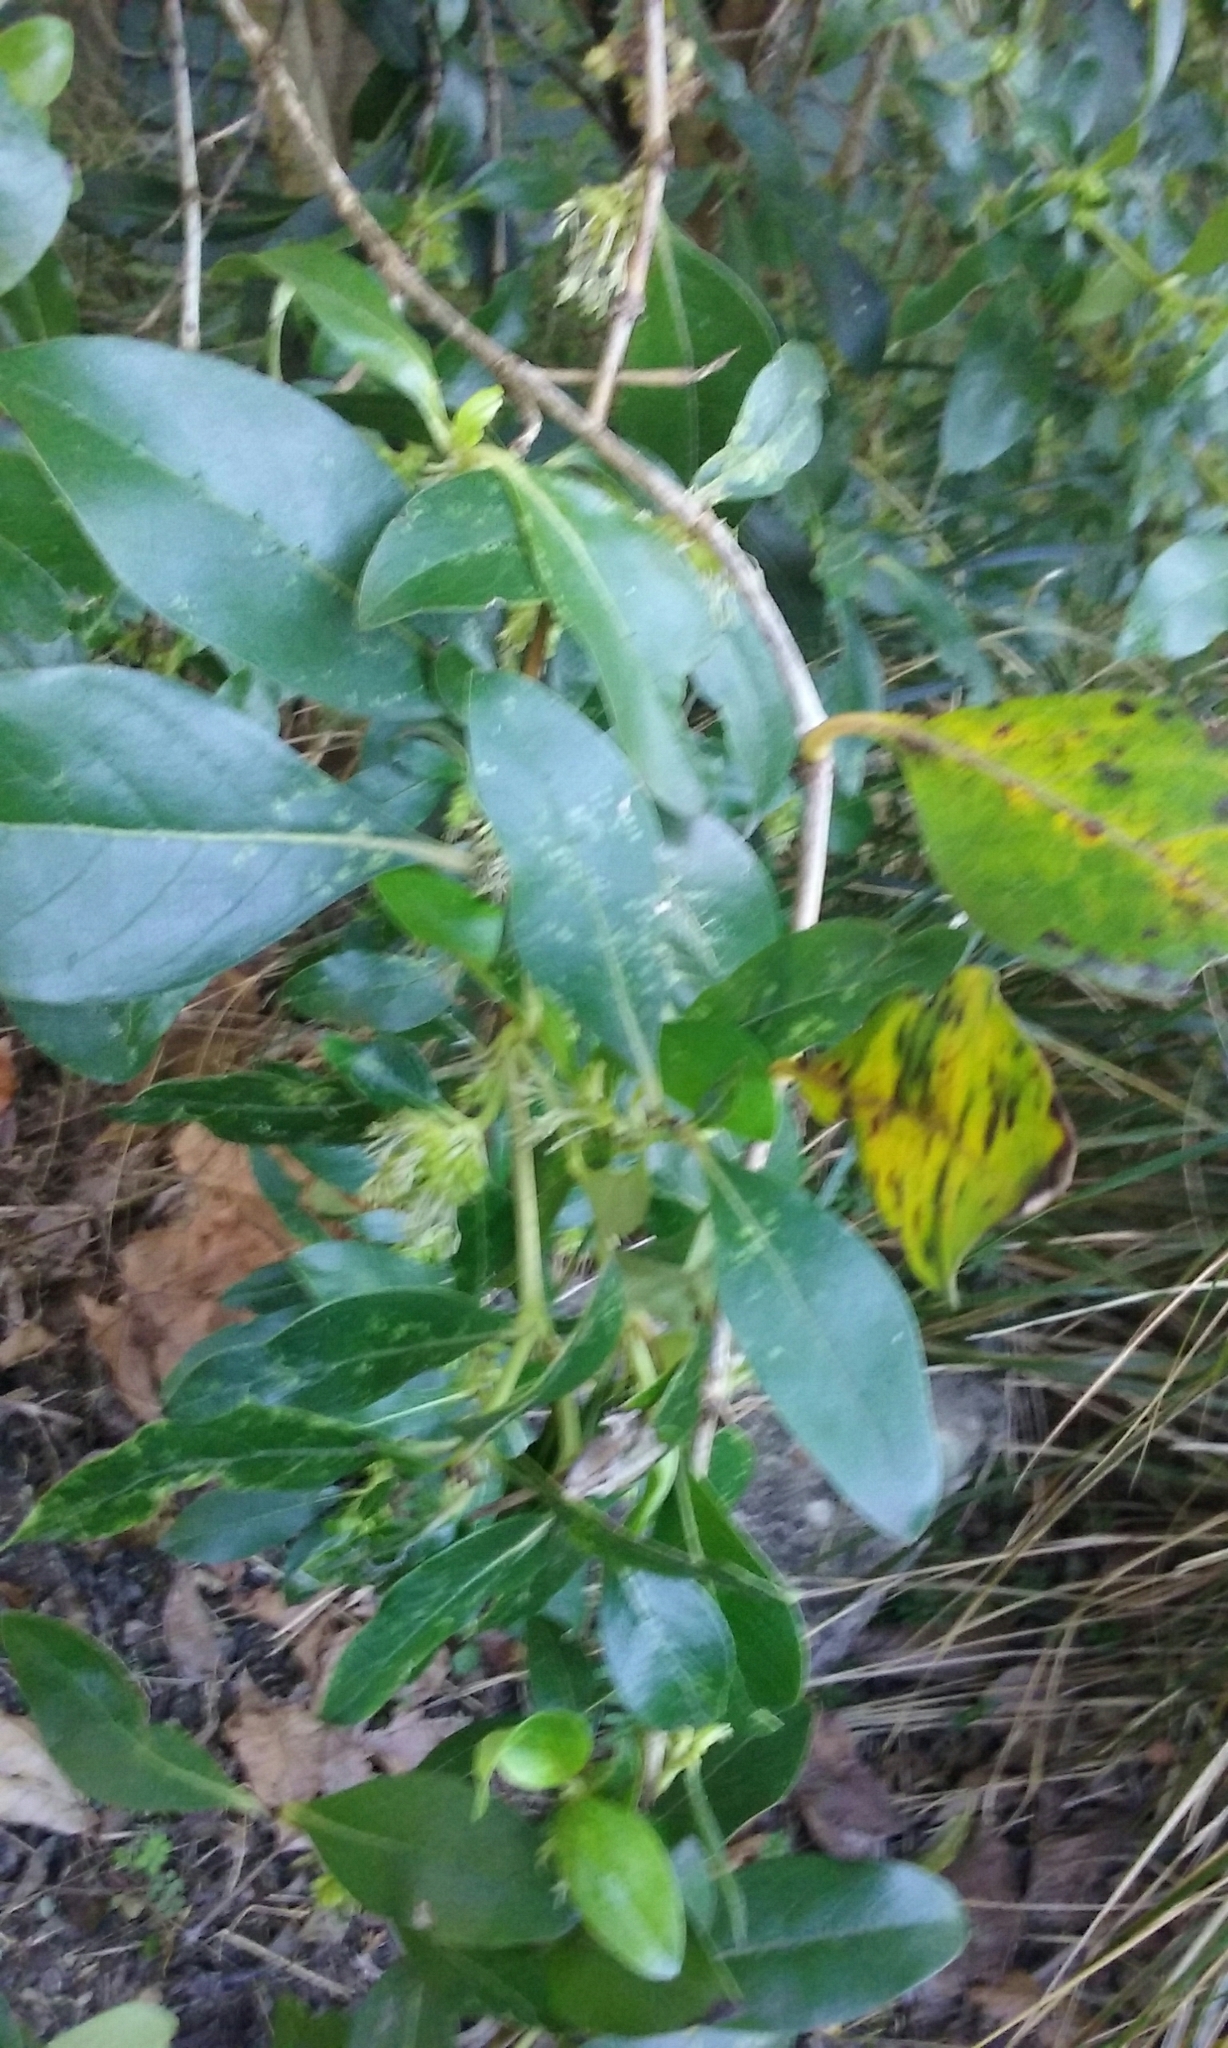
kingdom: Plantae
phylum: Tracheophyta
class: Magnoliopsida
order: Gentianales
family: Rubiaceae
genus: Coprosma
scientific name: Coprosma robusta
